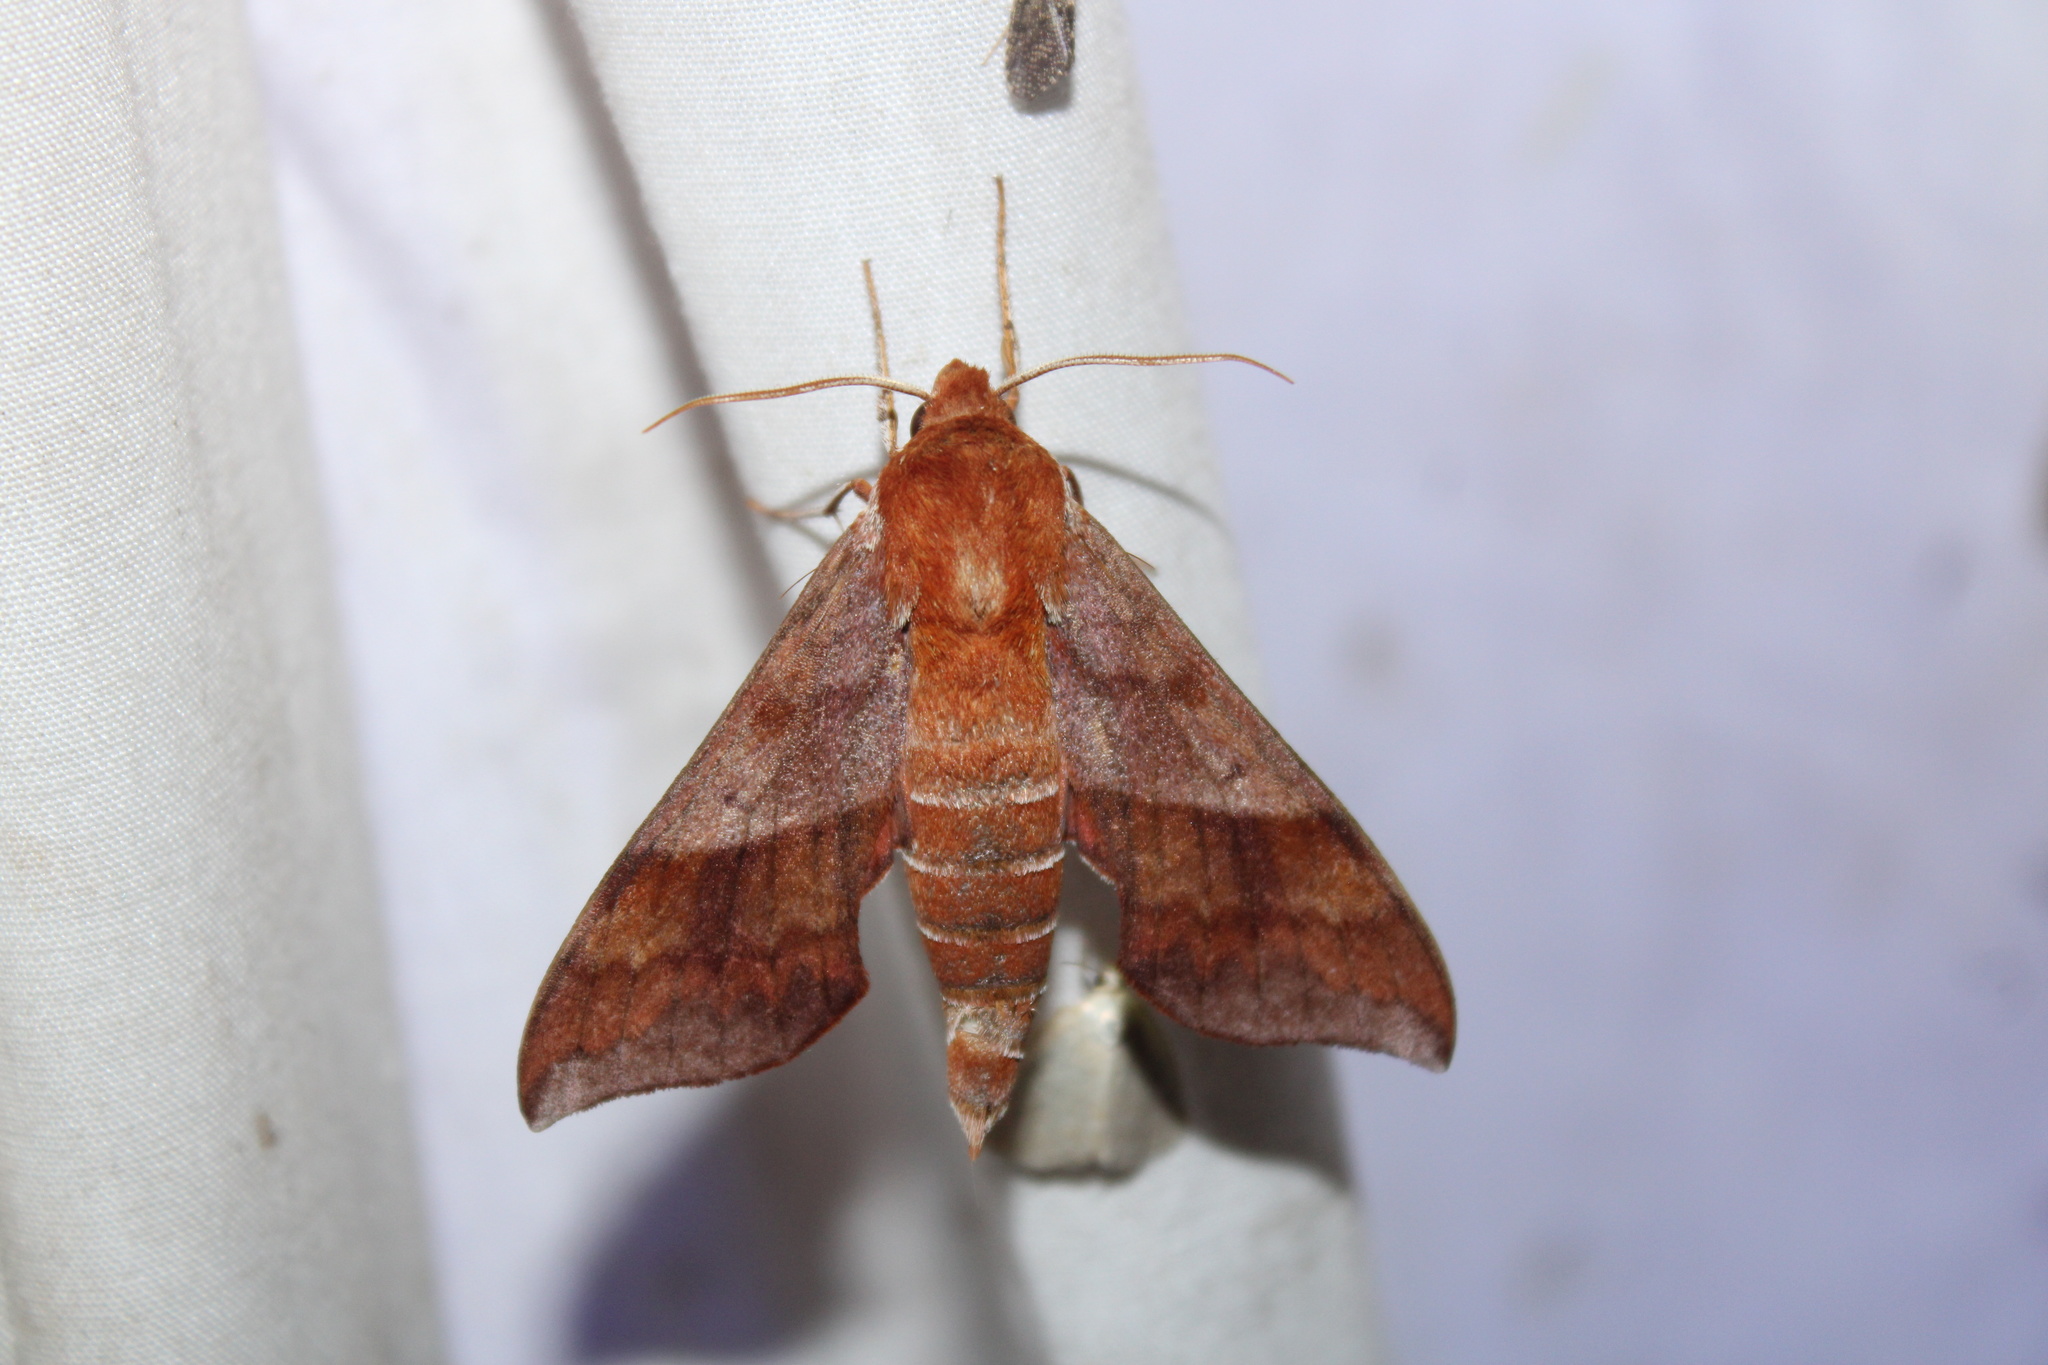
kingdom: Animalia
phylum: Arthropoda
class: Insecta
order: Lepidoptera
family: Sphingidae
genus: Darapsa
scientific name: Darapsa choerilus
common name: Azalea sphinx
